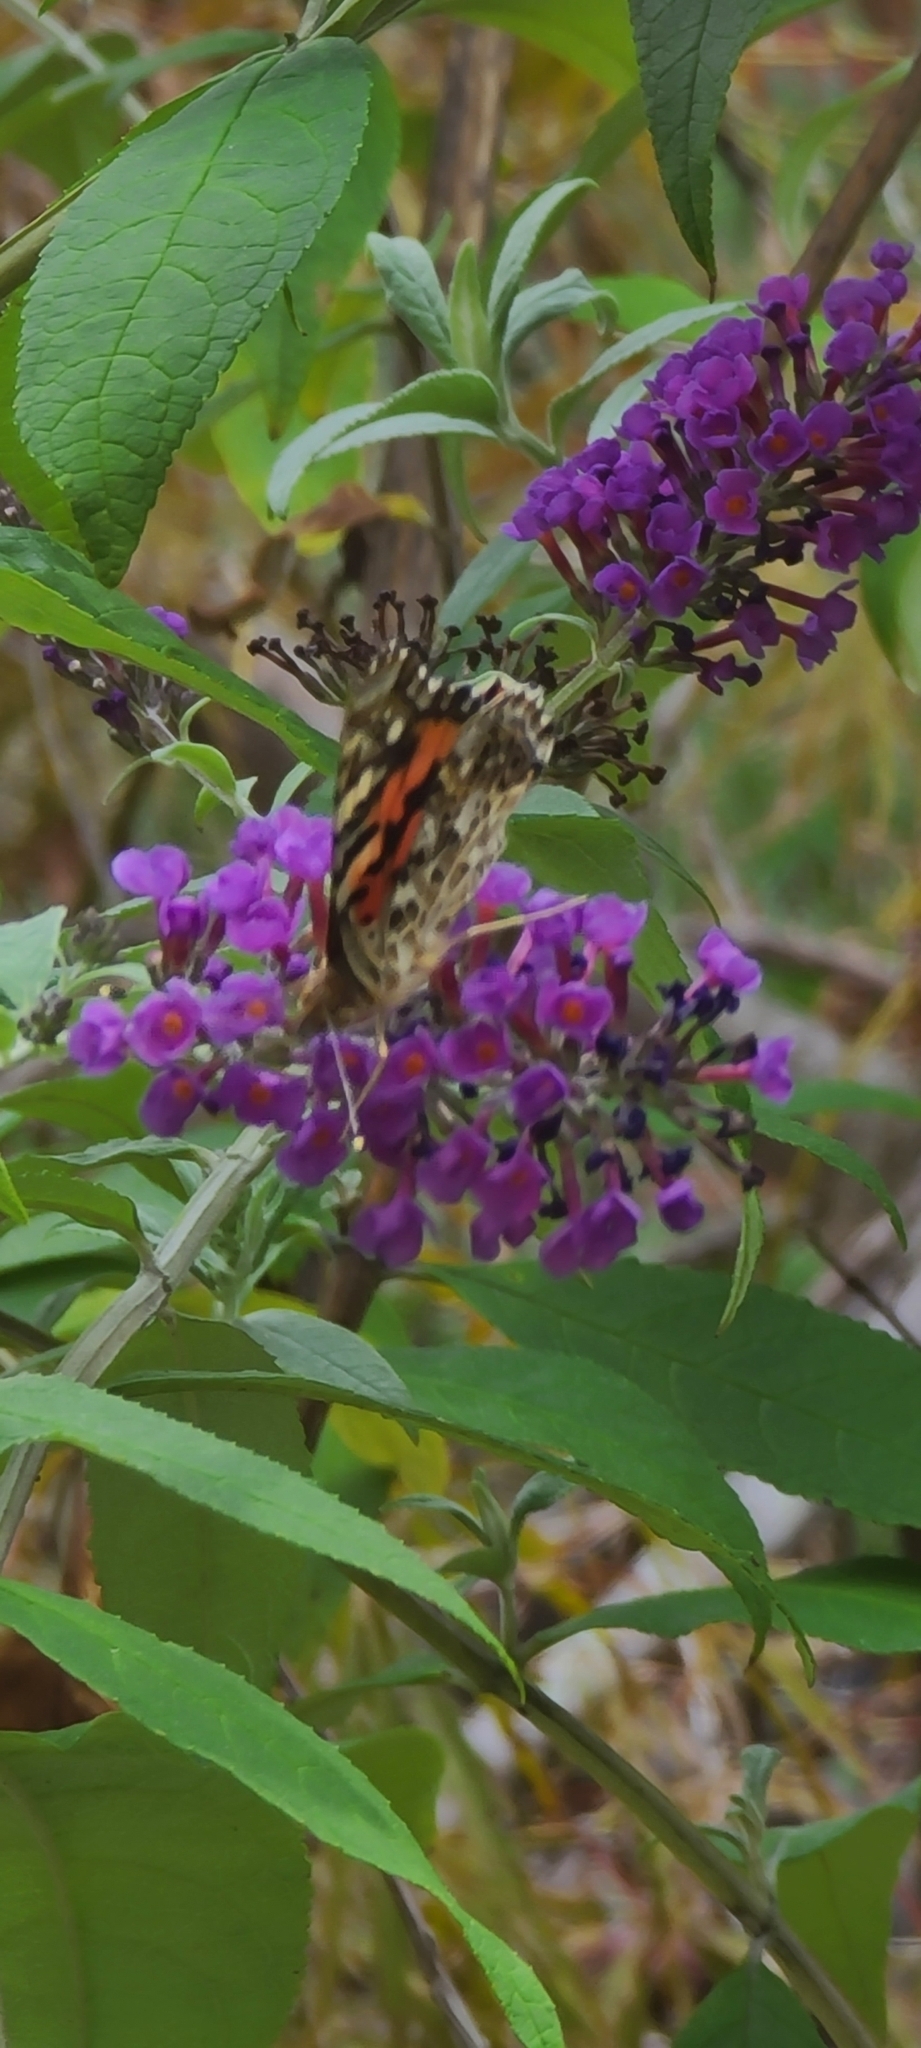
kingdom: Animalia
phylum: Arthropoda
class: Insecta
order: Lepidoptera
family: Nymphalidae
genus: Vanessa
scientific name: Vanessa cardui
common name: Painted lady
